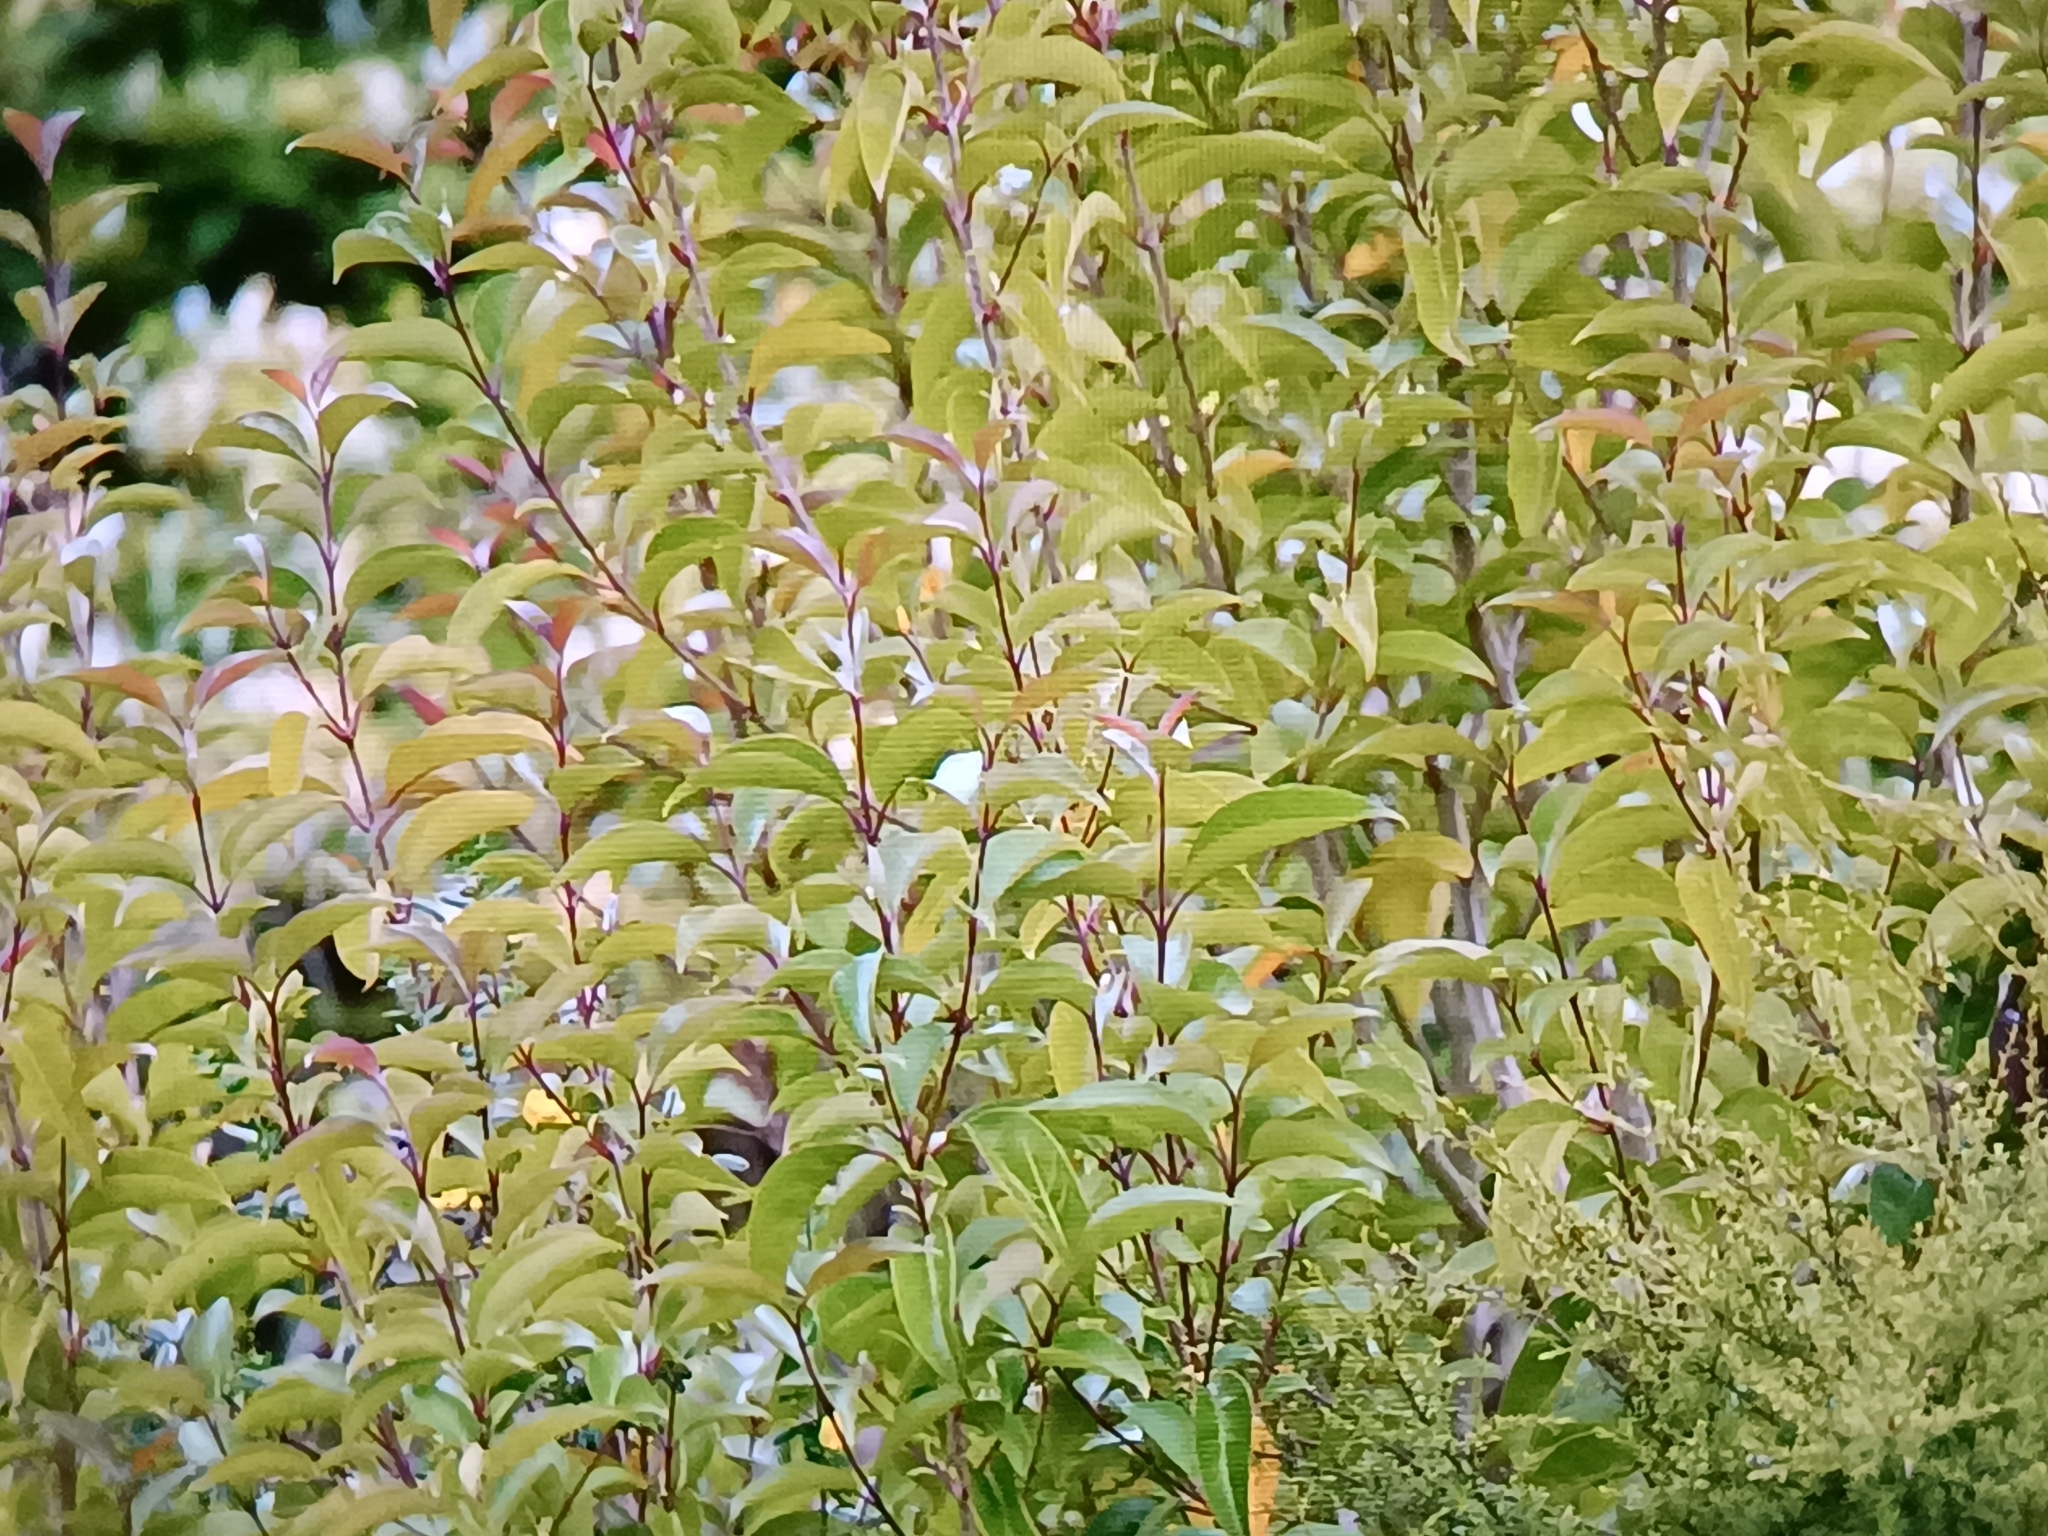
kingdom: Plantae
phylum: Tracheophyta
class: Magnoliopsida
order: Lamiales
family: Oleaceae
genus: Ligustrum
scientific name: Ligustrum lucidum
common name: Glossy privet
